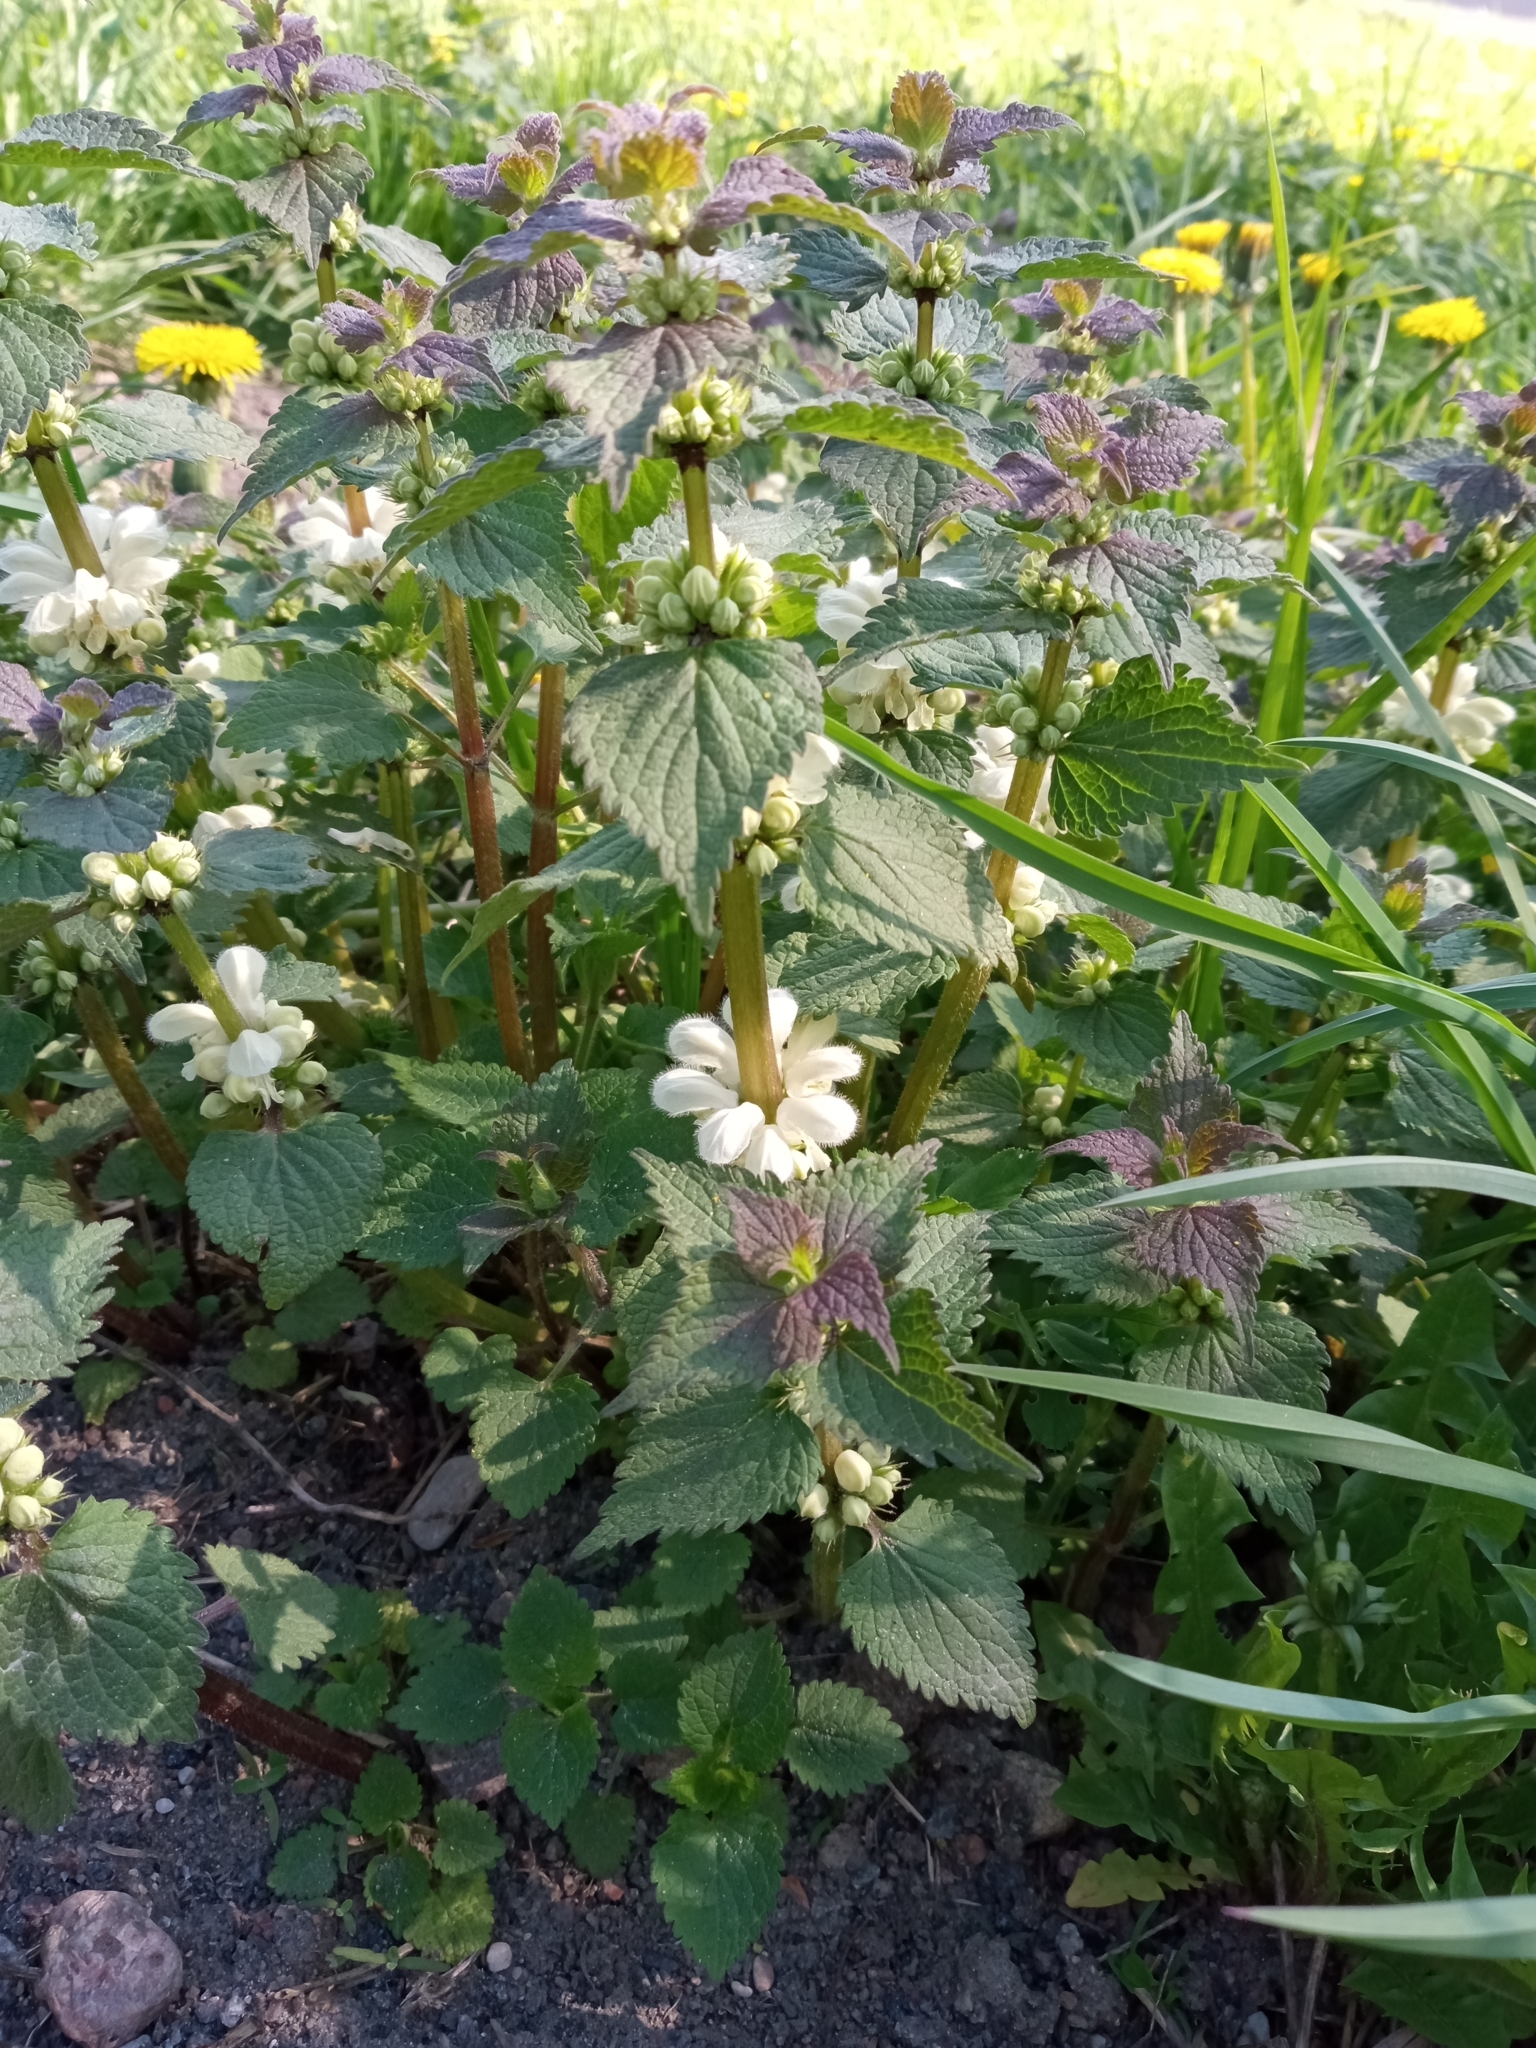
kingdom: Plantae
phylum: Tracheophyta
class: Magnoliopsida
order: Lamiales
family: Lamiaceae
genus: Lamium
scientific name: Lamium album
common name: White dead-nettle
